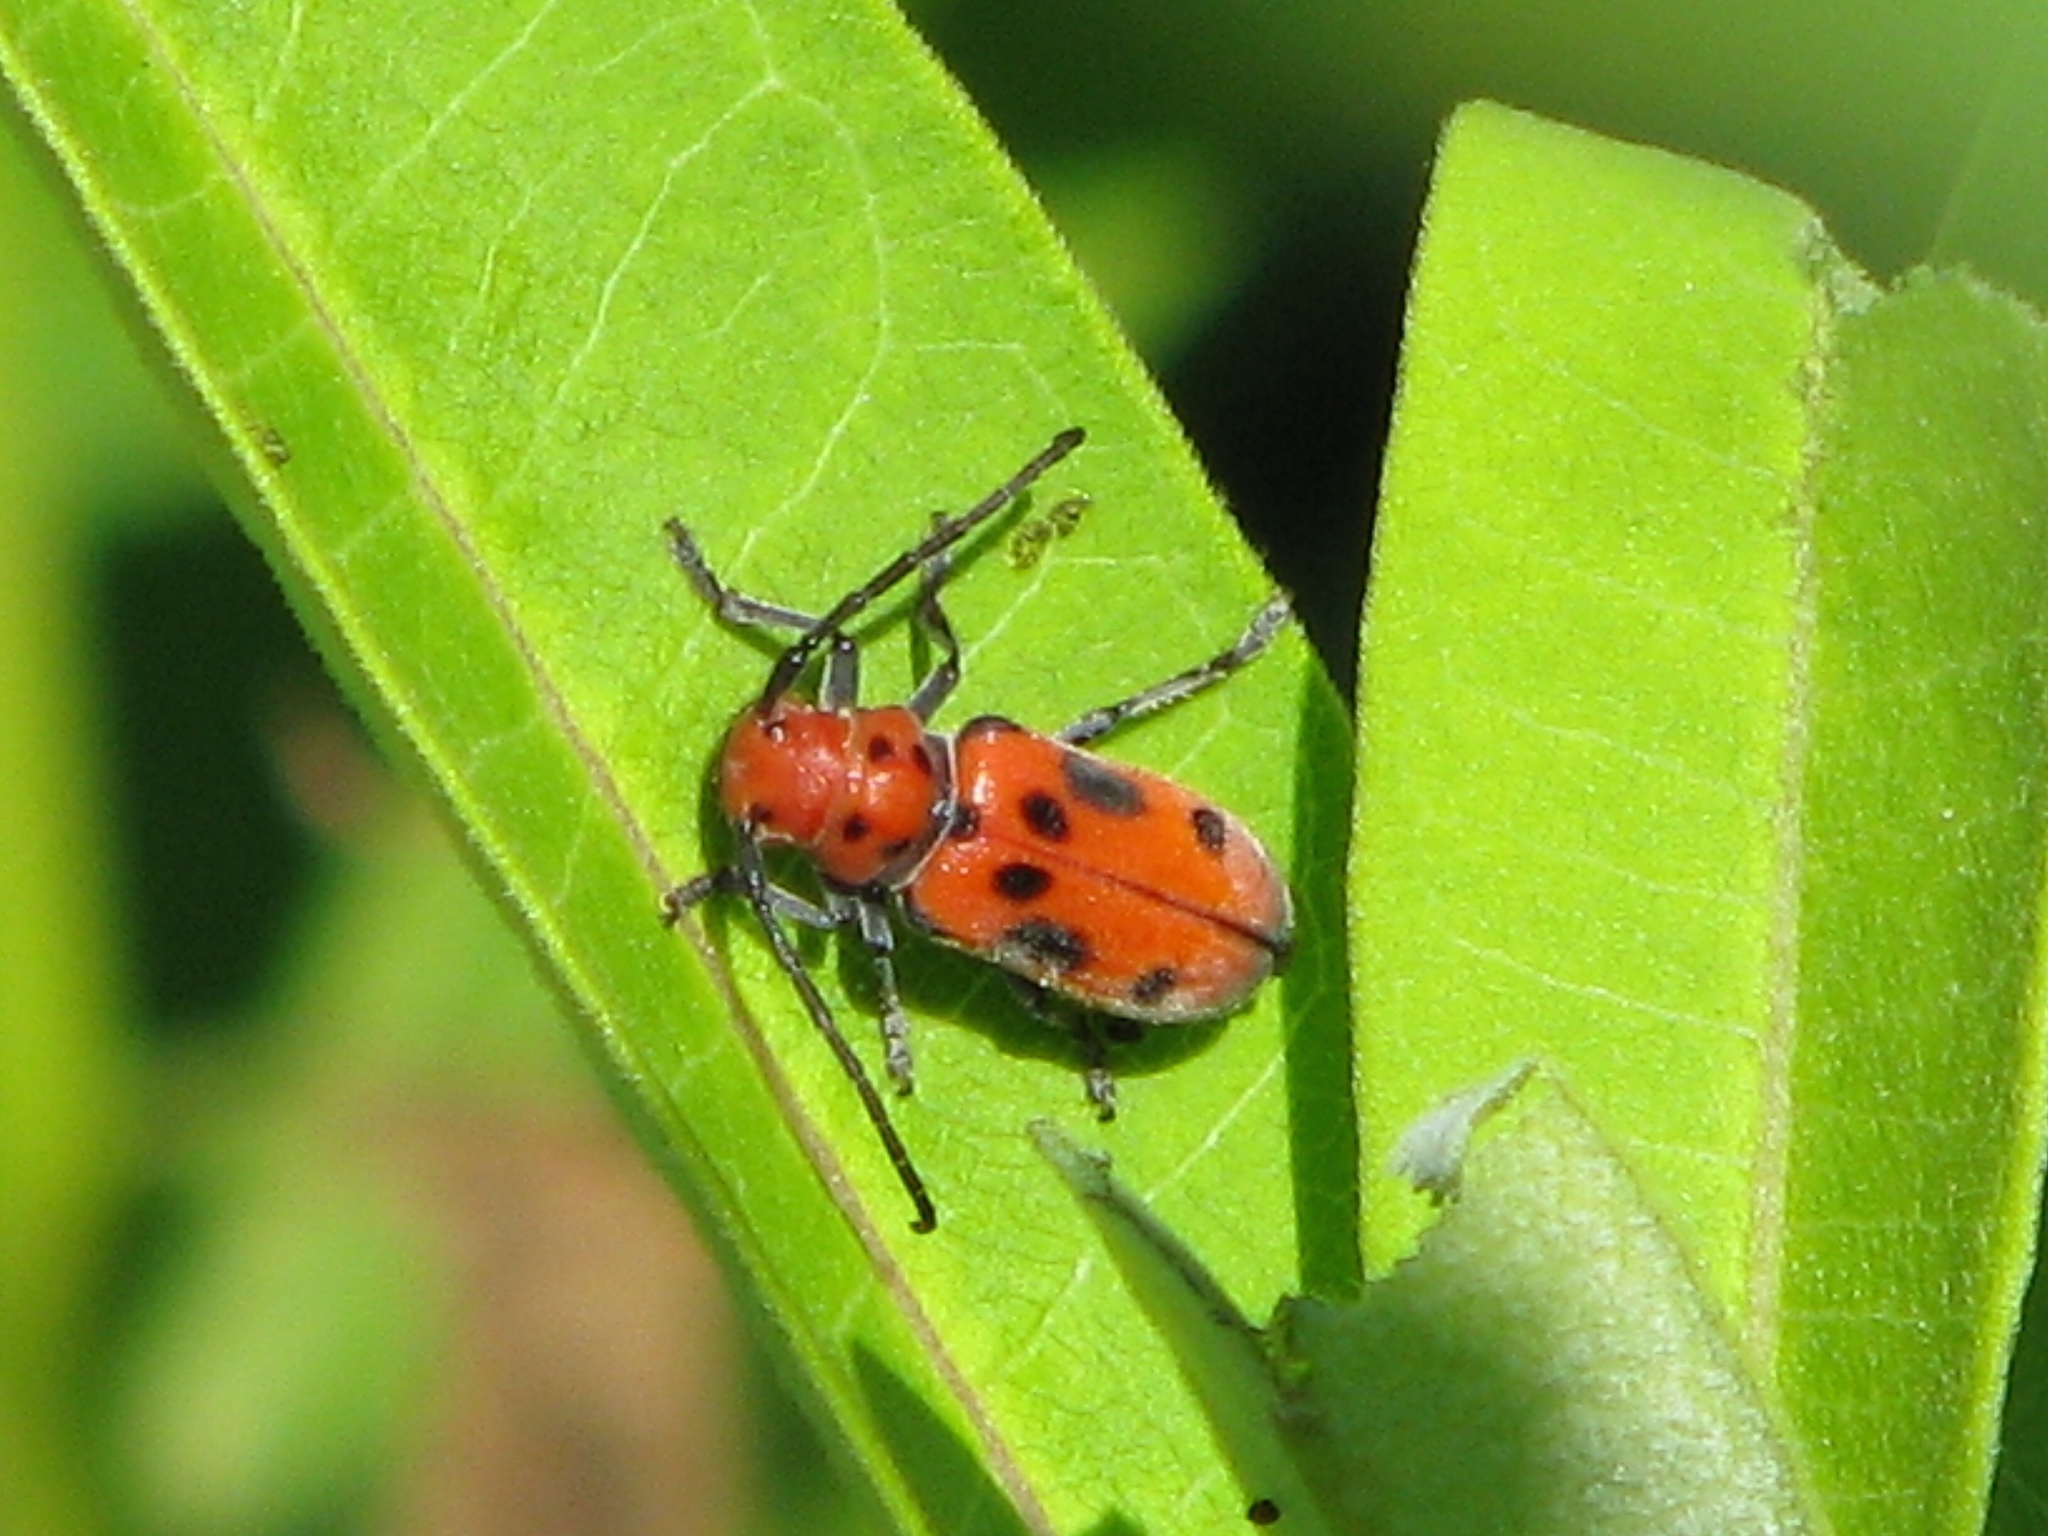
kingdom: Animalia
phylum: Arthropoda
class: Insecta
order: Coleoptera
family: Cerambycidae
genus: Tetraopes
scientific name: Tetraopes tetrophthalmus
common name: Red milkweed beetle
